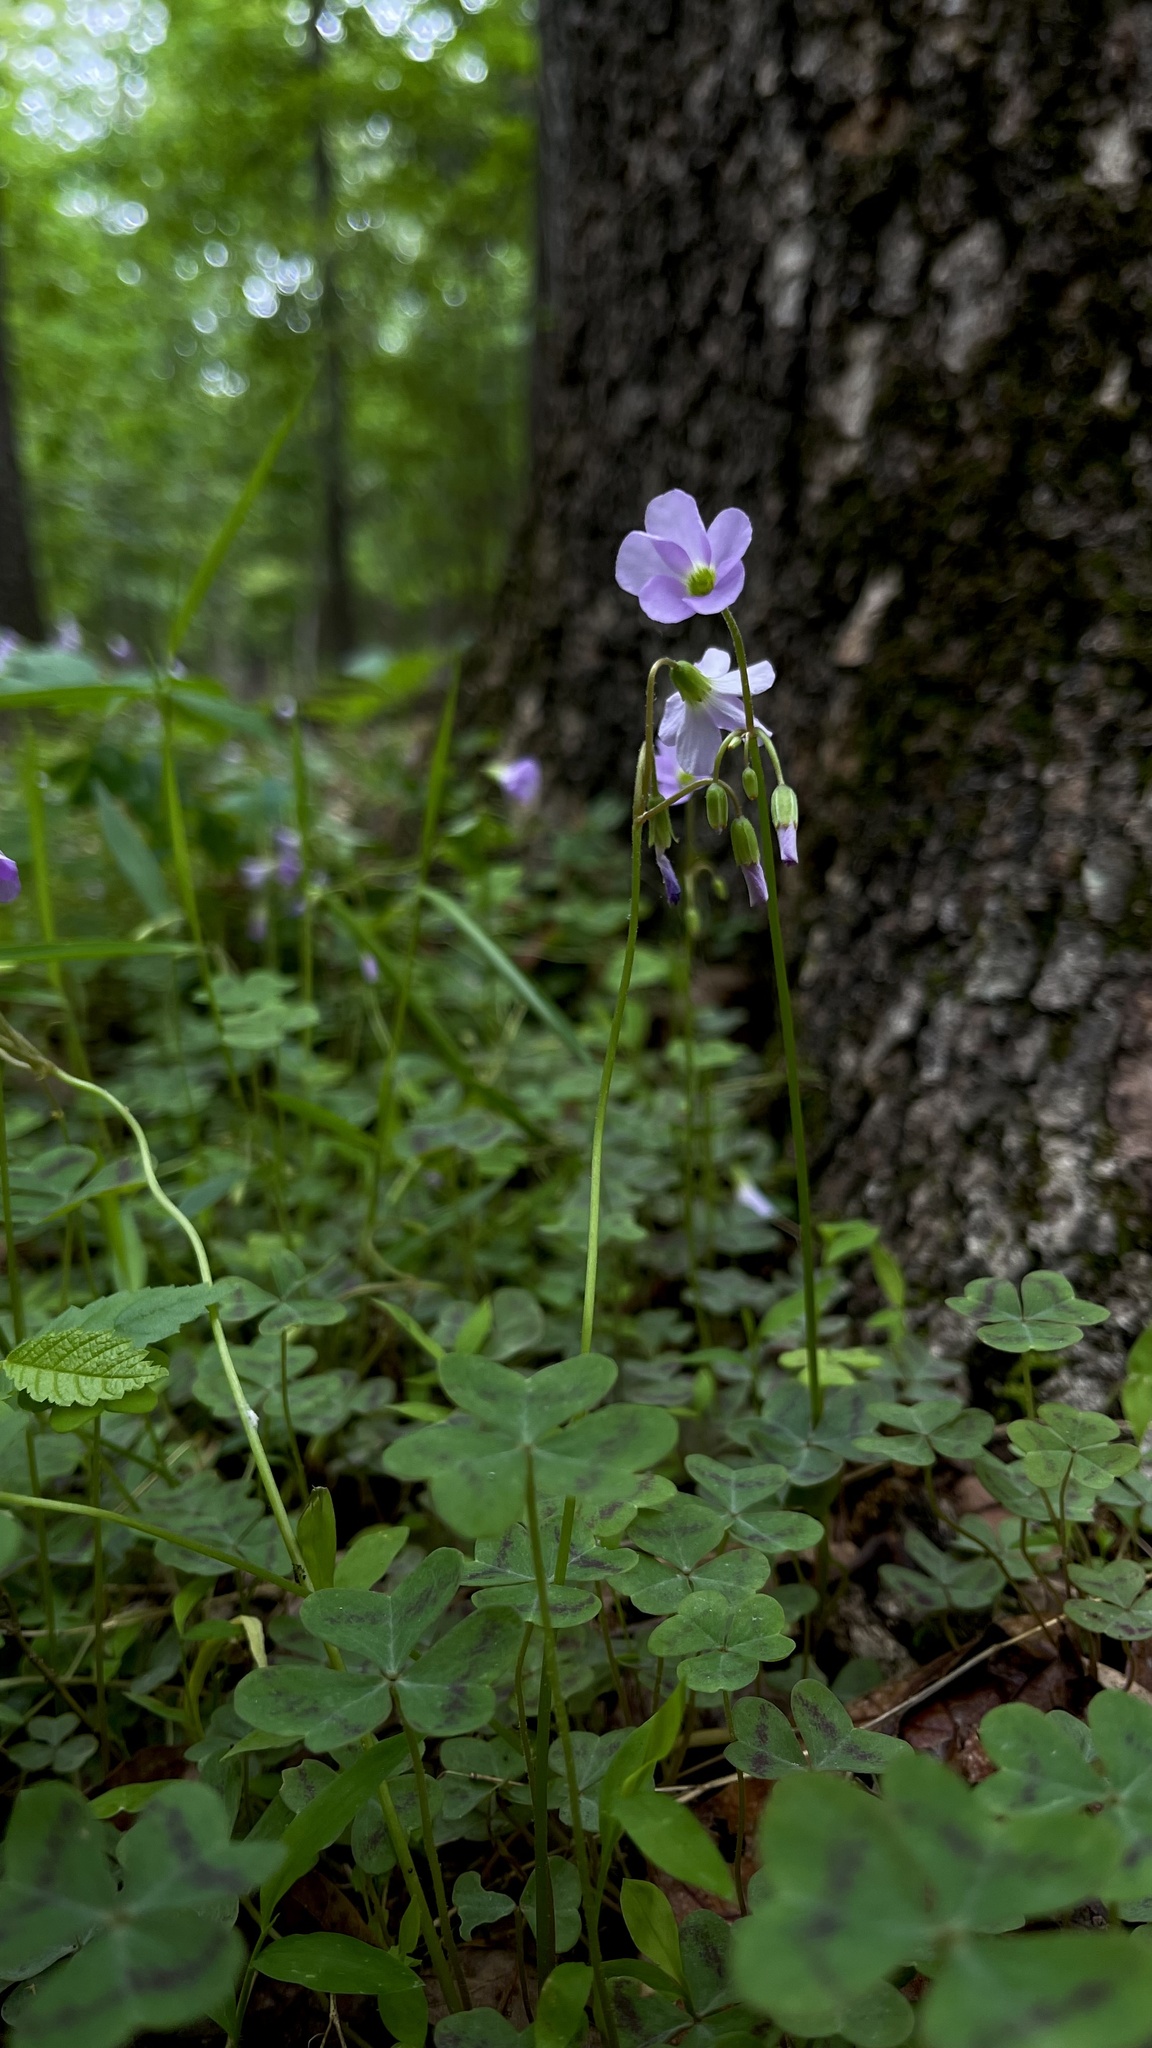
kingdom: Plantae
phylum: Tracheophyta
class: Magnoliopsida
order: Oxalidales
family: Oxalidaceae
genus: Oxalis
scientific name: Oxalis violacea
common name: Violet wood-sorrel
